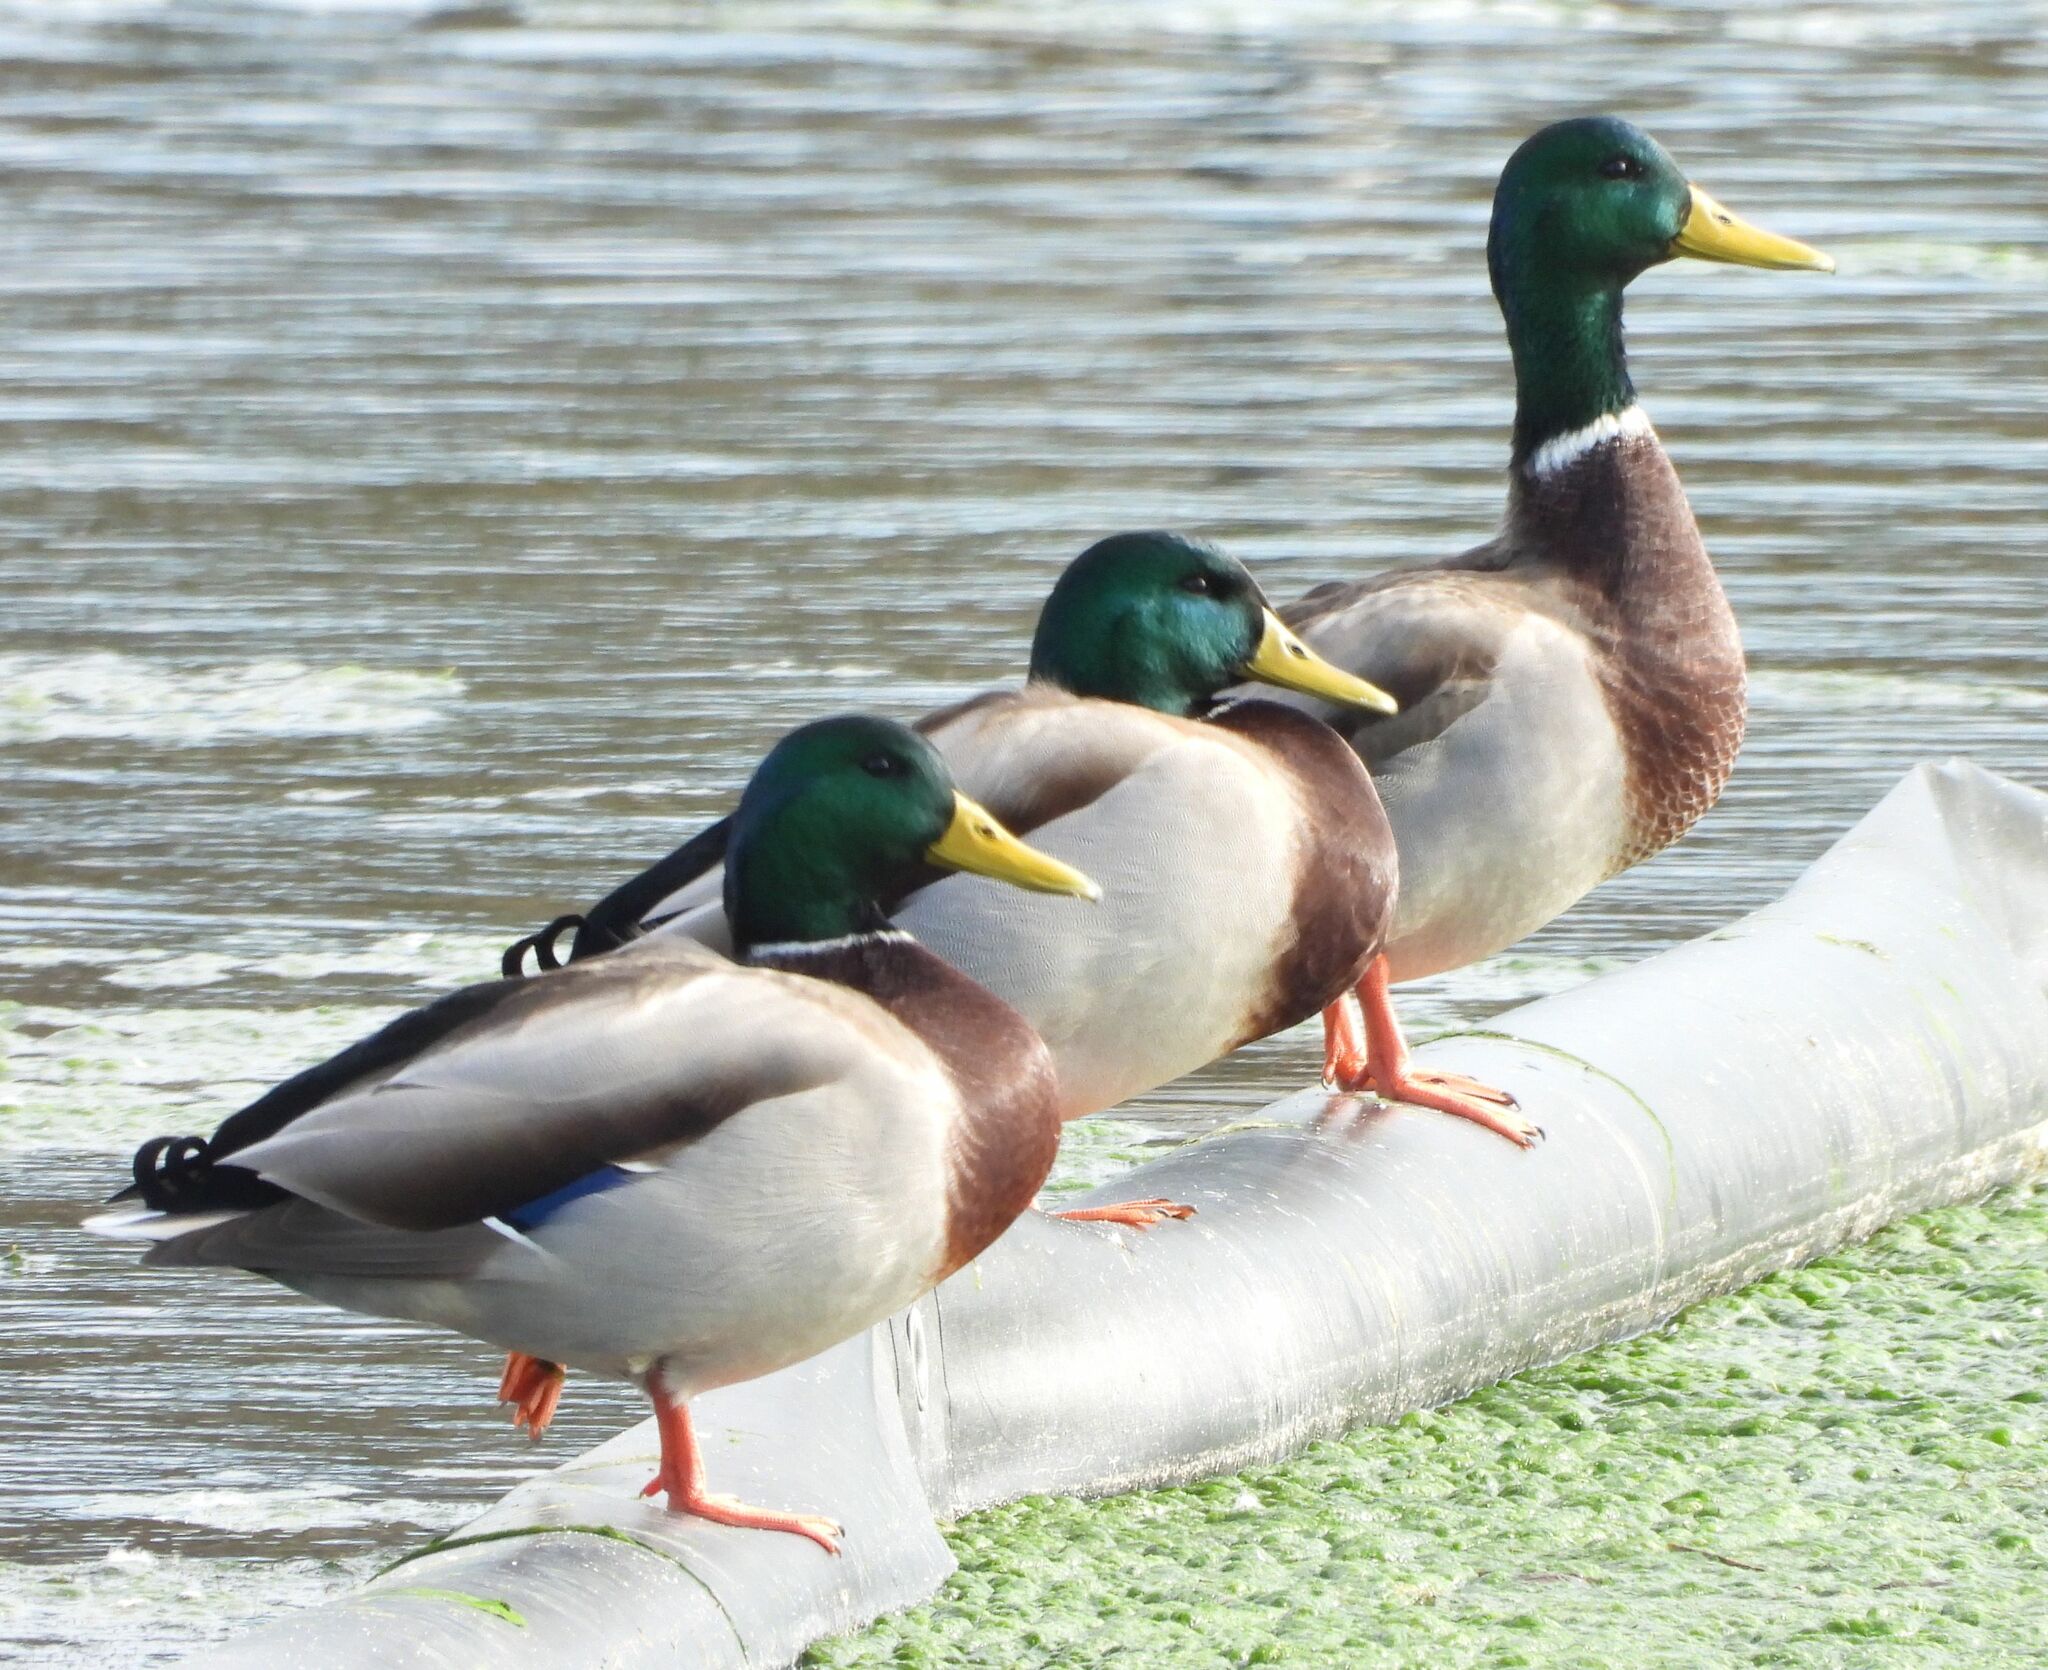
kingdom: Animalia
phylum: Chordata
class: Aves
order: Anseriformes
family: Anatidae
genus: Anas
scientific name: Anas platyrhynchos
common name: Mallard
